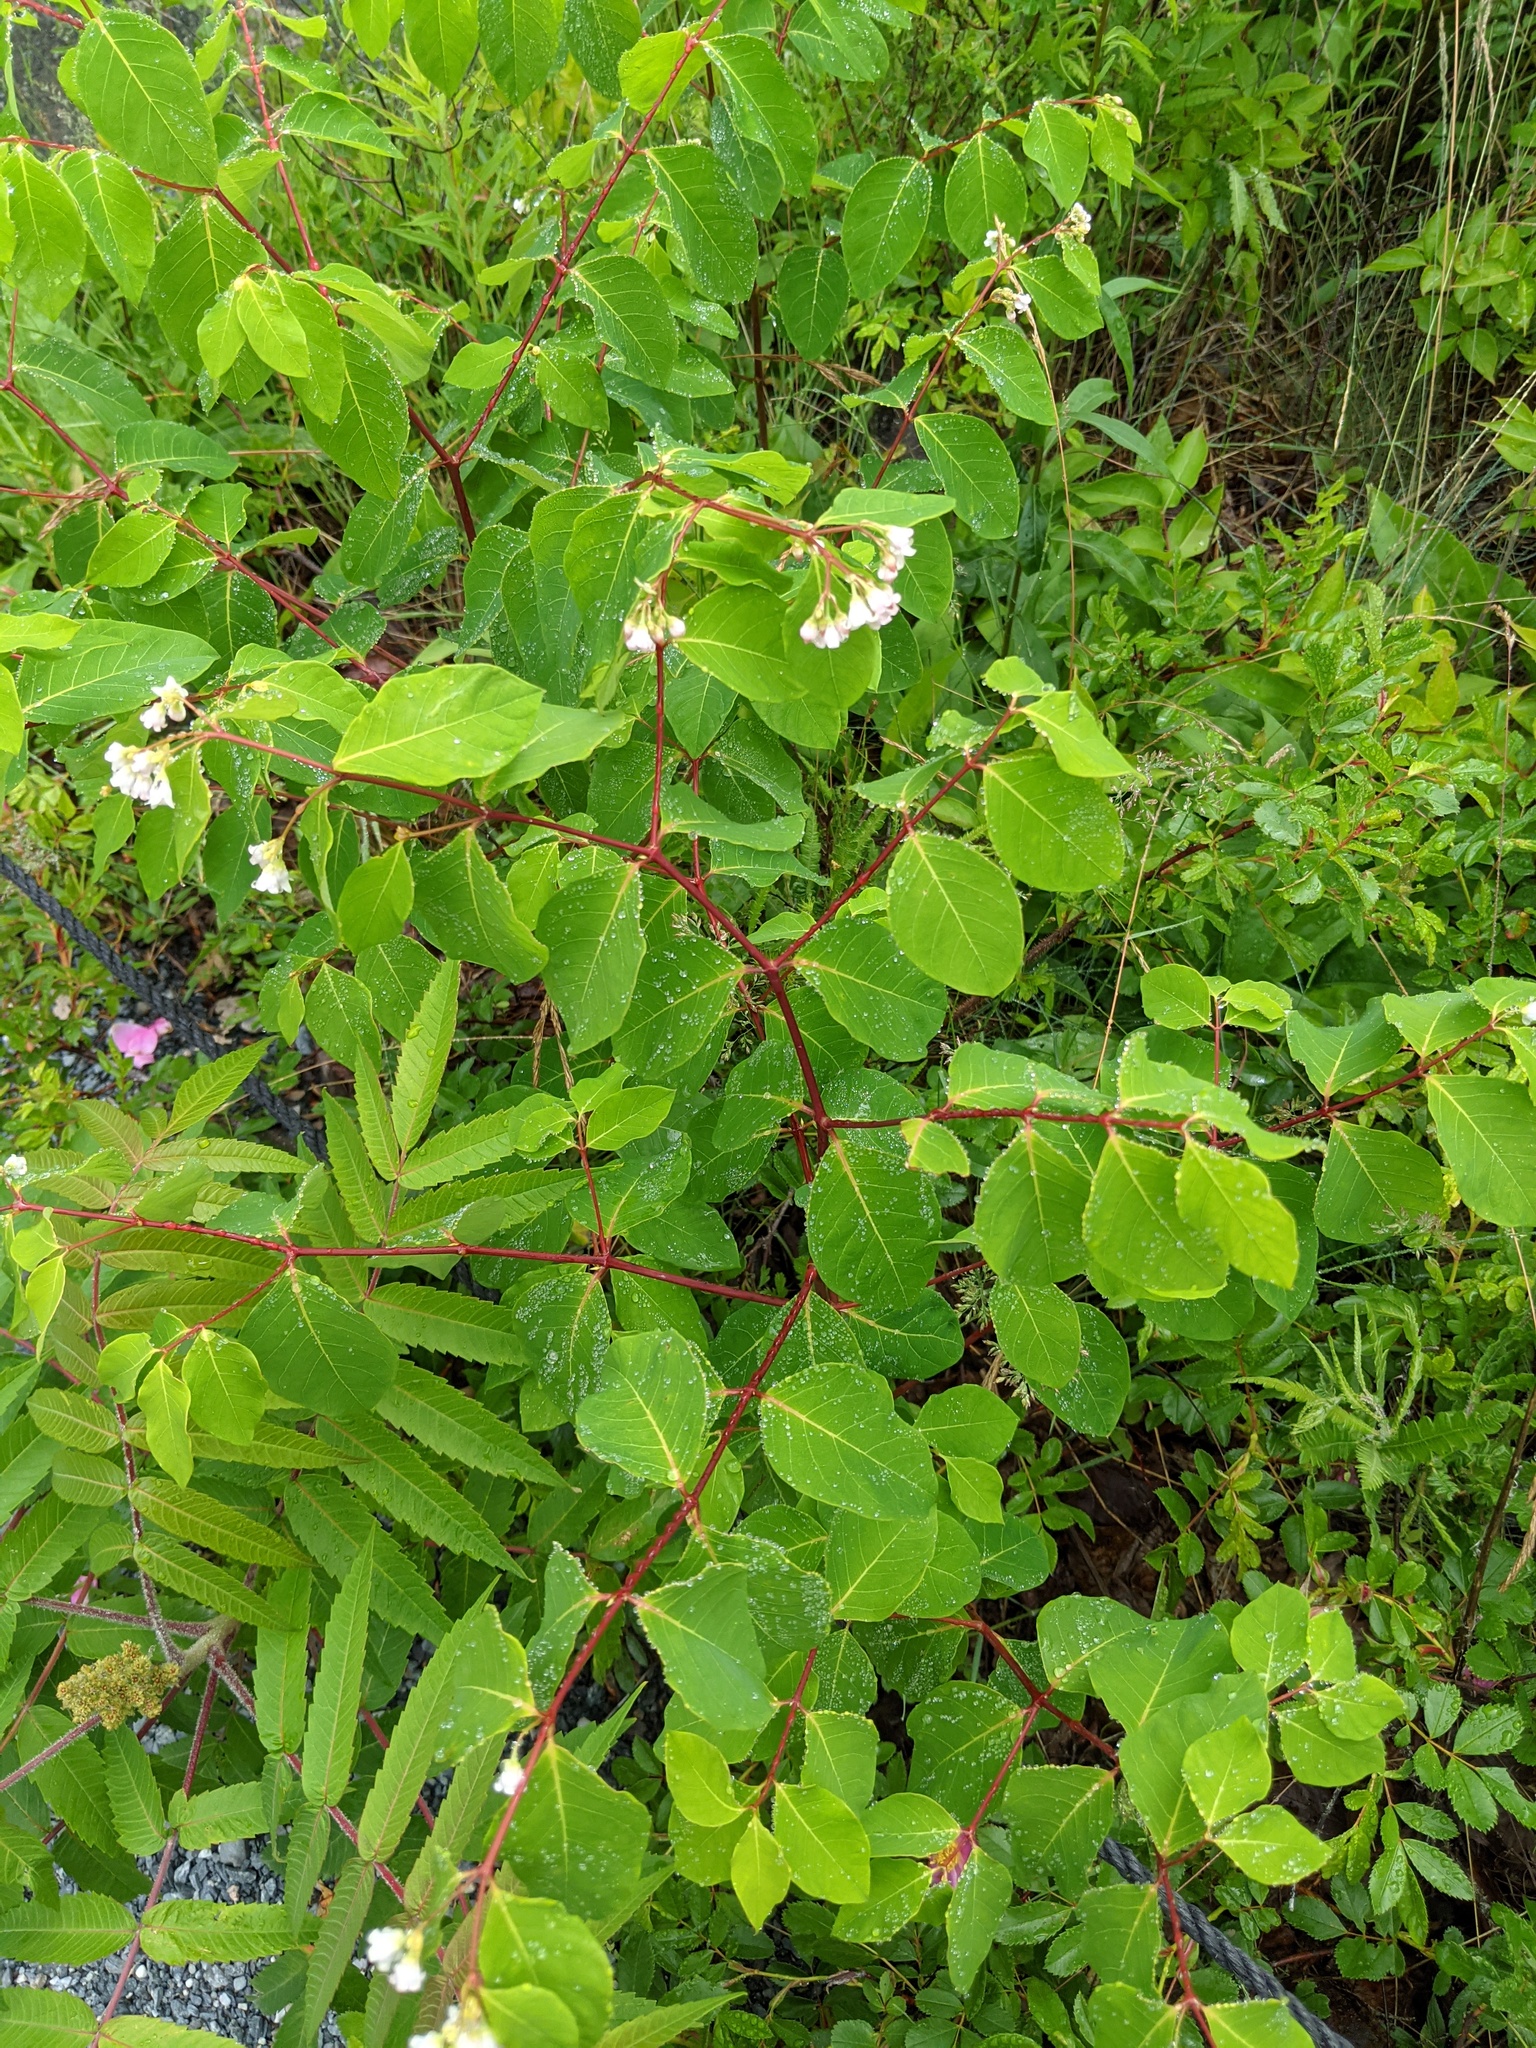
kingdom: Plantae
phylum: Tracheophyta
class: Magnoliopsida
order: Gentianales
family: Apocynaceae
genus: Apocynum
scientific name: Apocynum androsaemifolium
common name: Spreading dogbane
